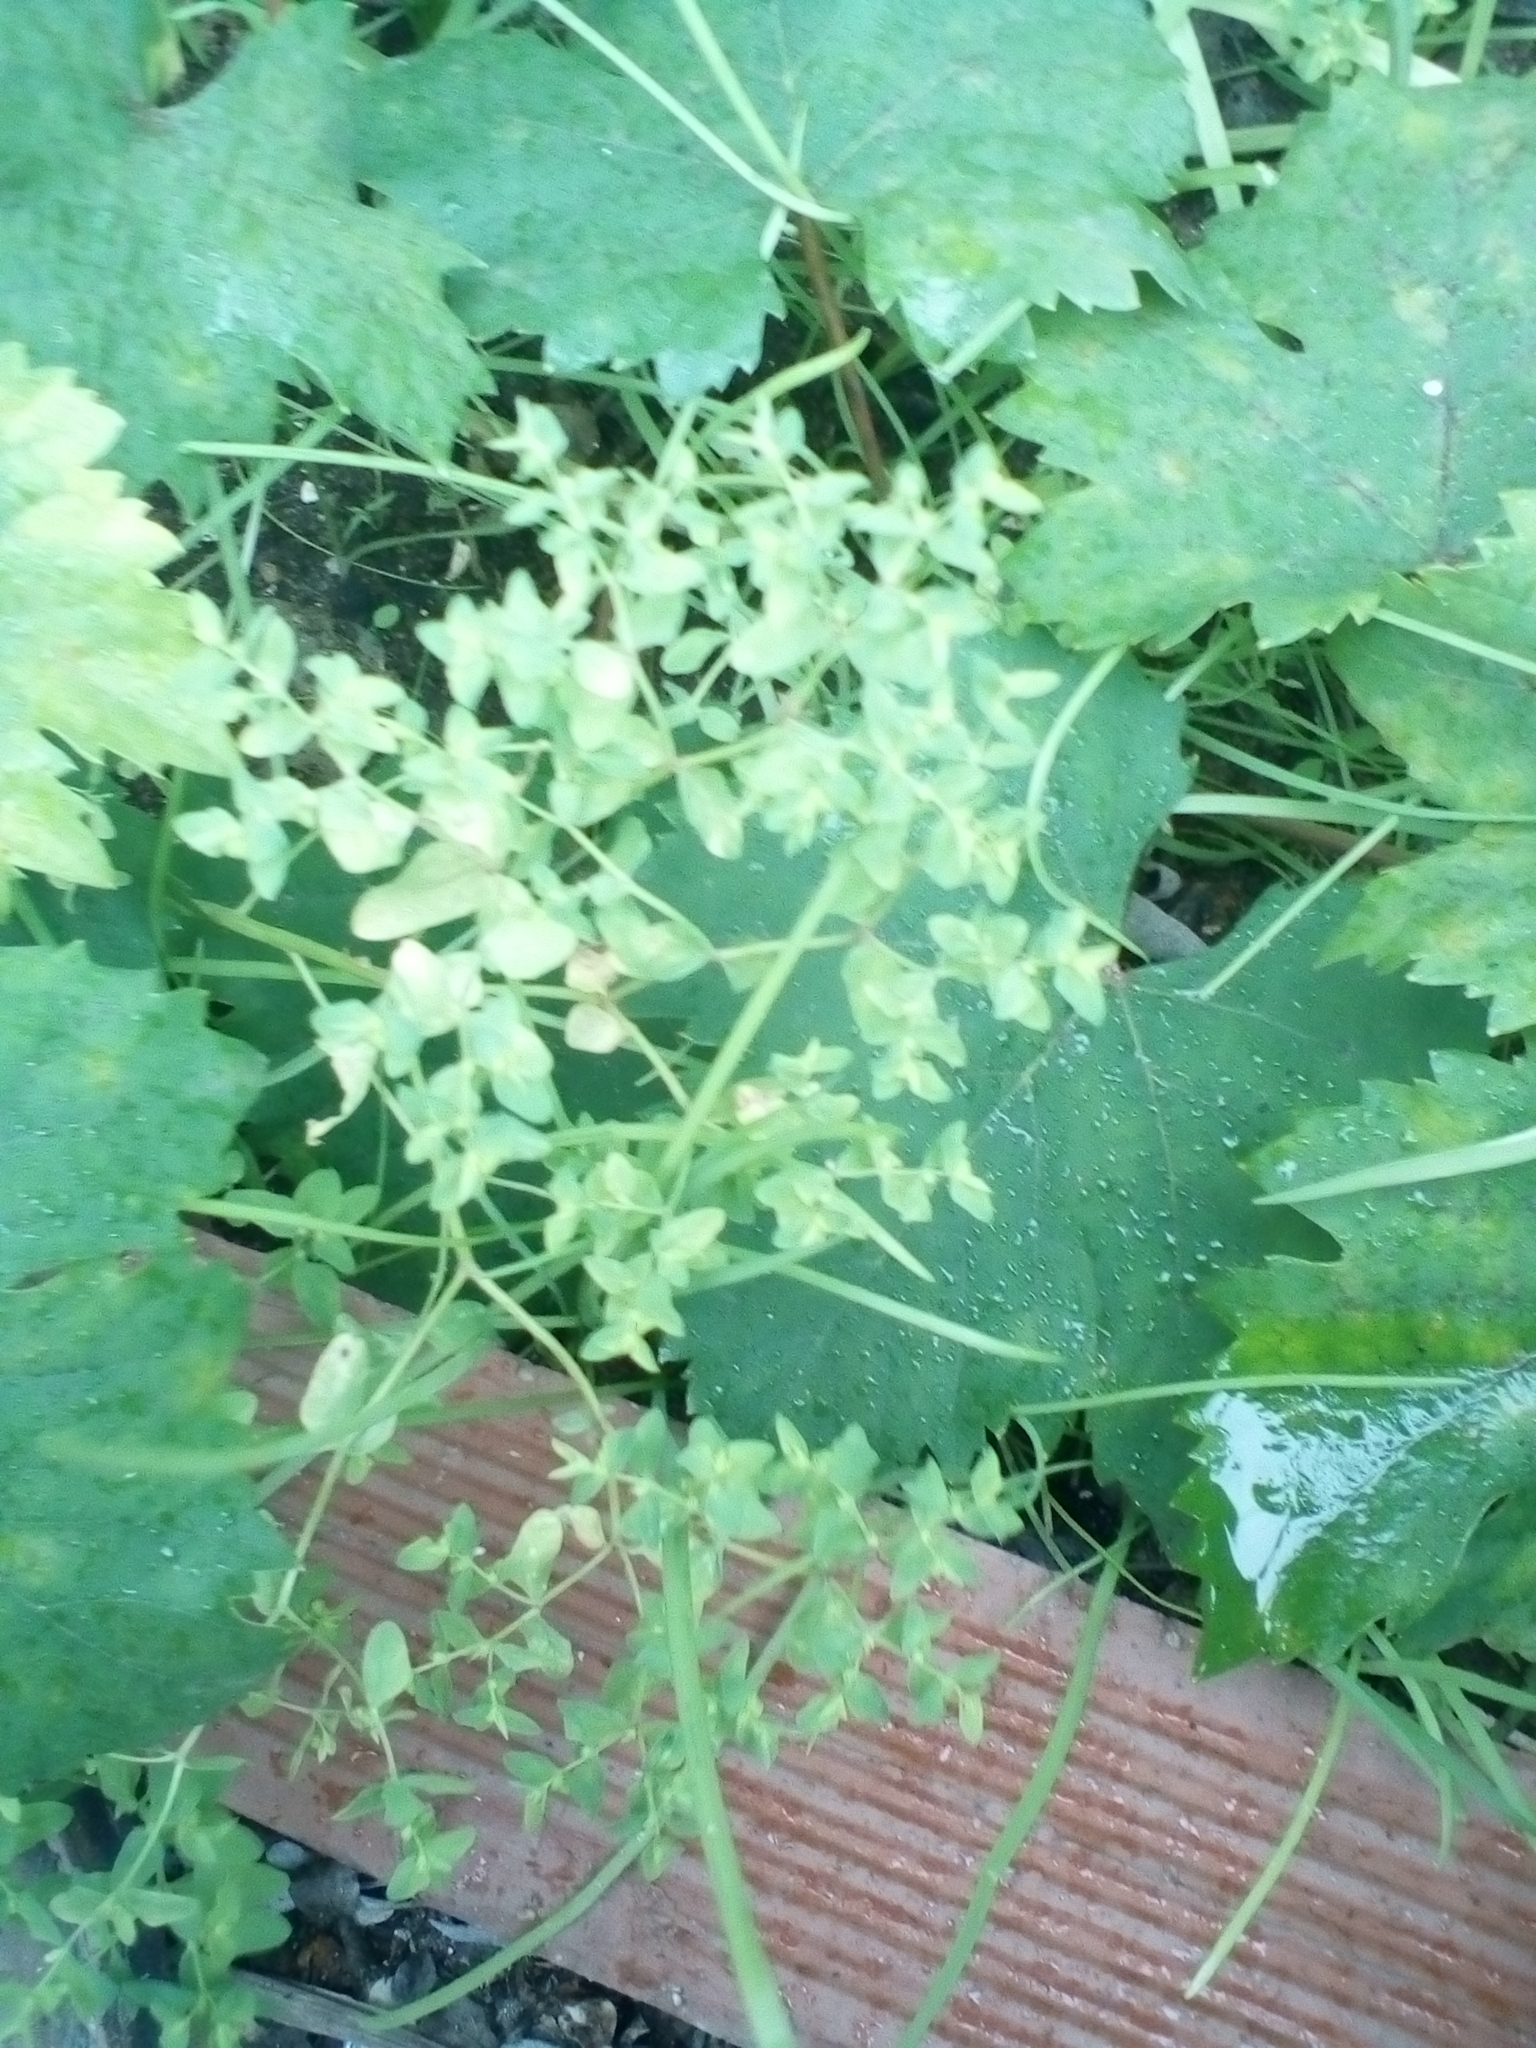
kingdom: Plantae
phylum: Tracheophyta
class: Magnoliopsida
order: Malpighiales
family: Euphorbiaceae
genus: Euphorbia
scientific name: Euphorbia peplus
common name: Petty spurge
